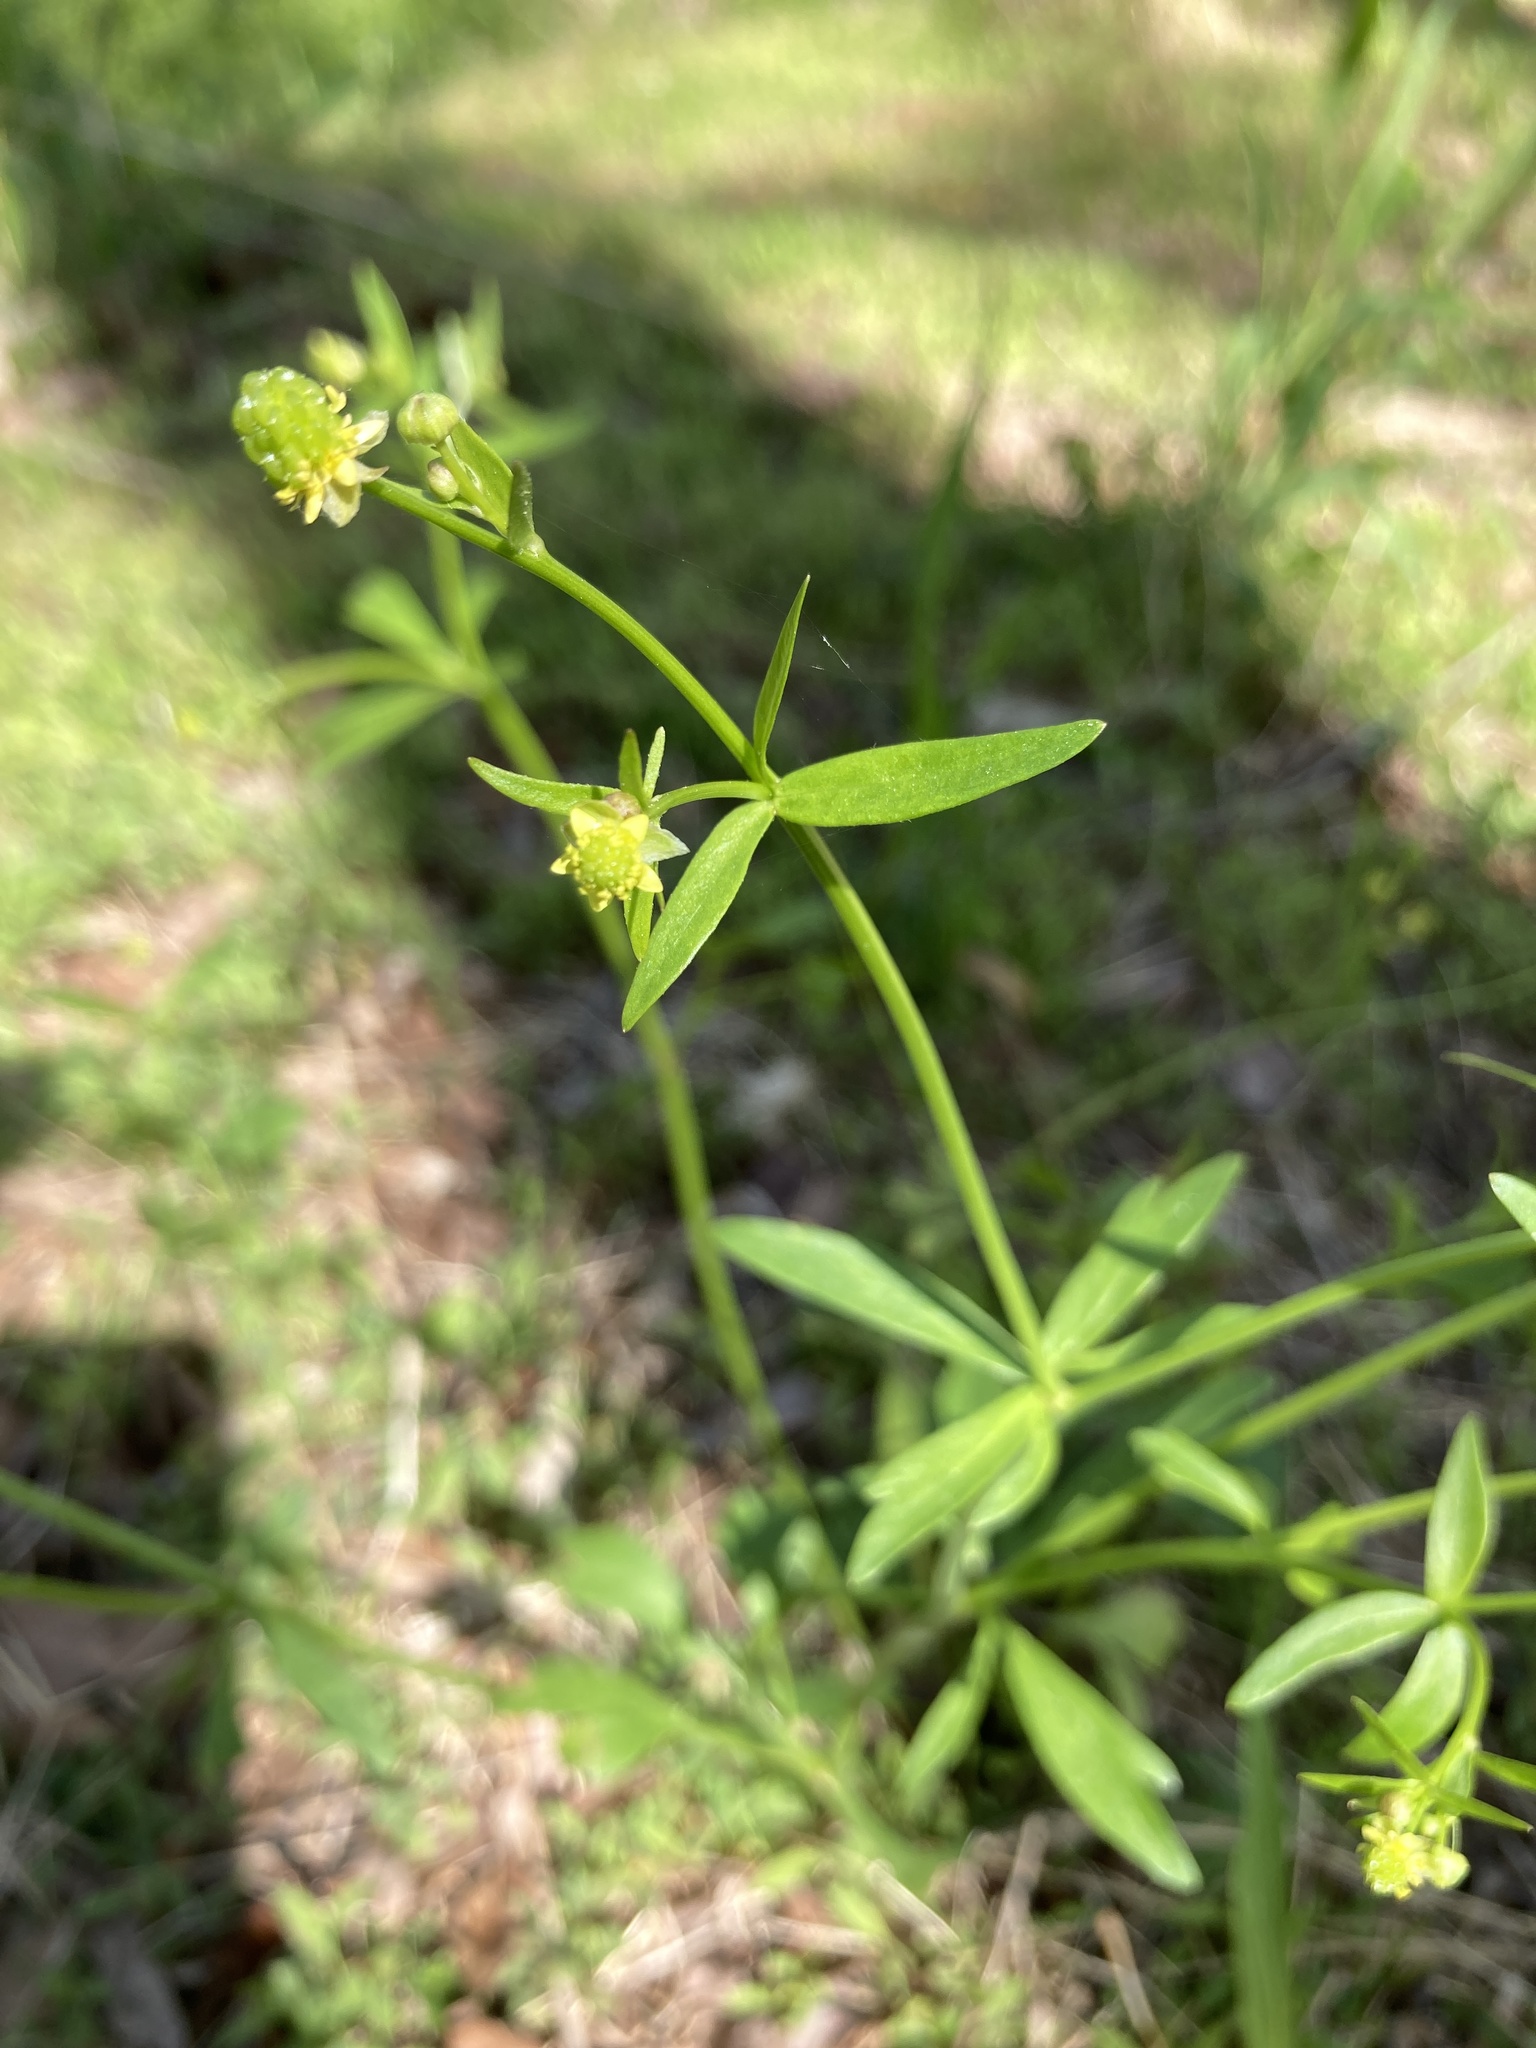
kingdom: Plantae
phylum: Tracheophyta
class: Magnoliopsida
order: Ranunculales
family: Ranunculaceae
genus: Ranunculus
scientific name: Ranunculus abortivus
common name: Early wood buttercup
